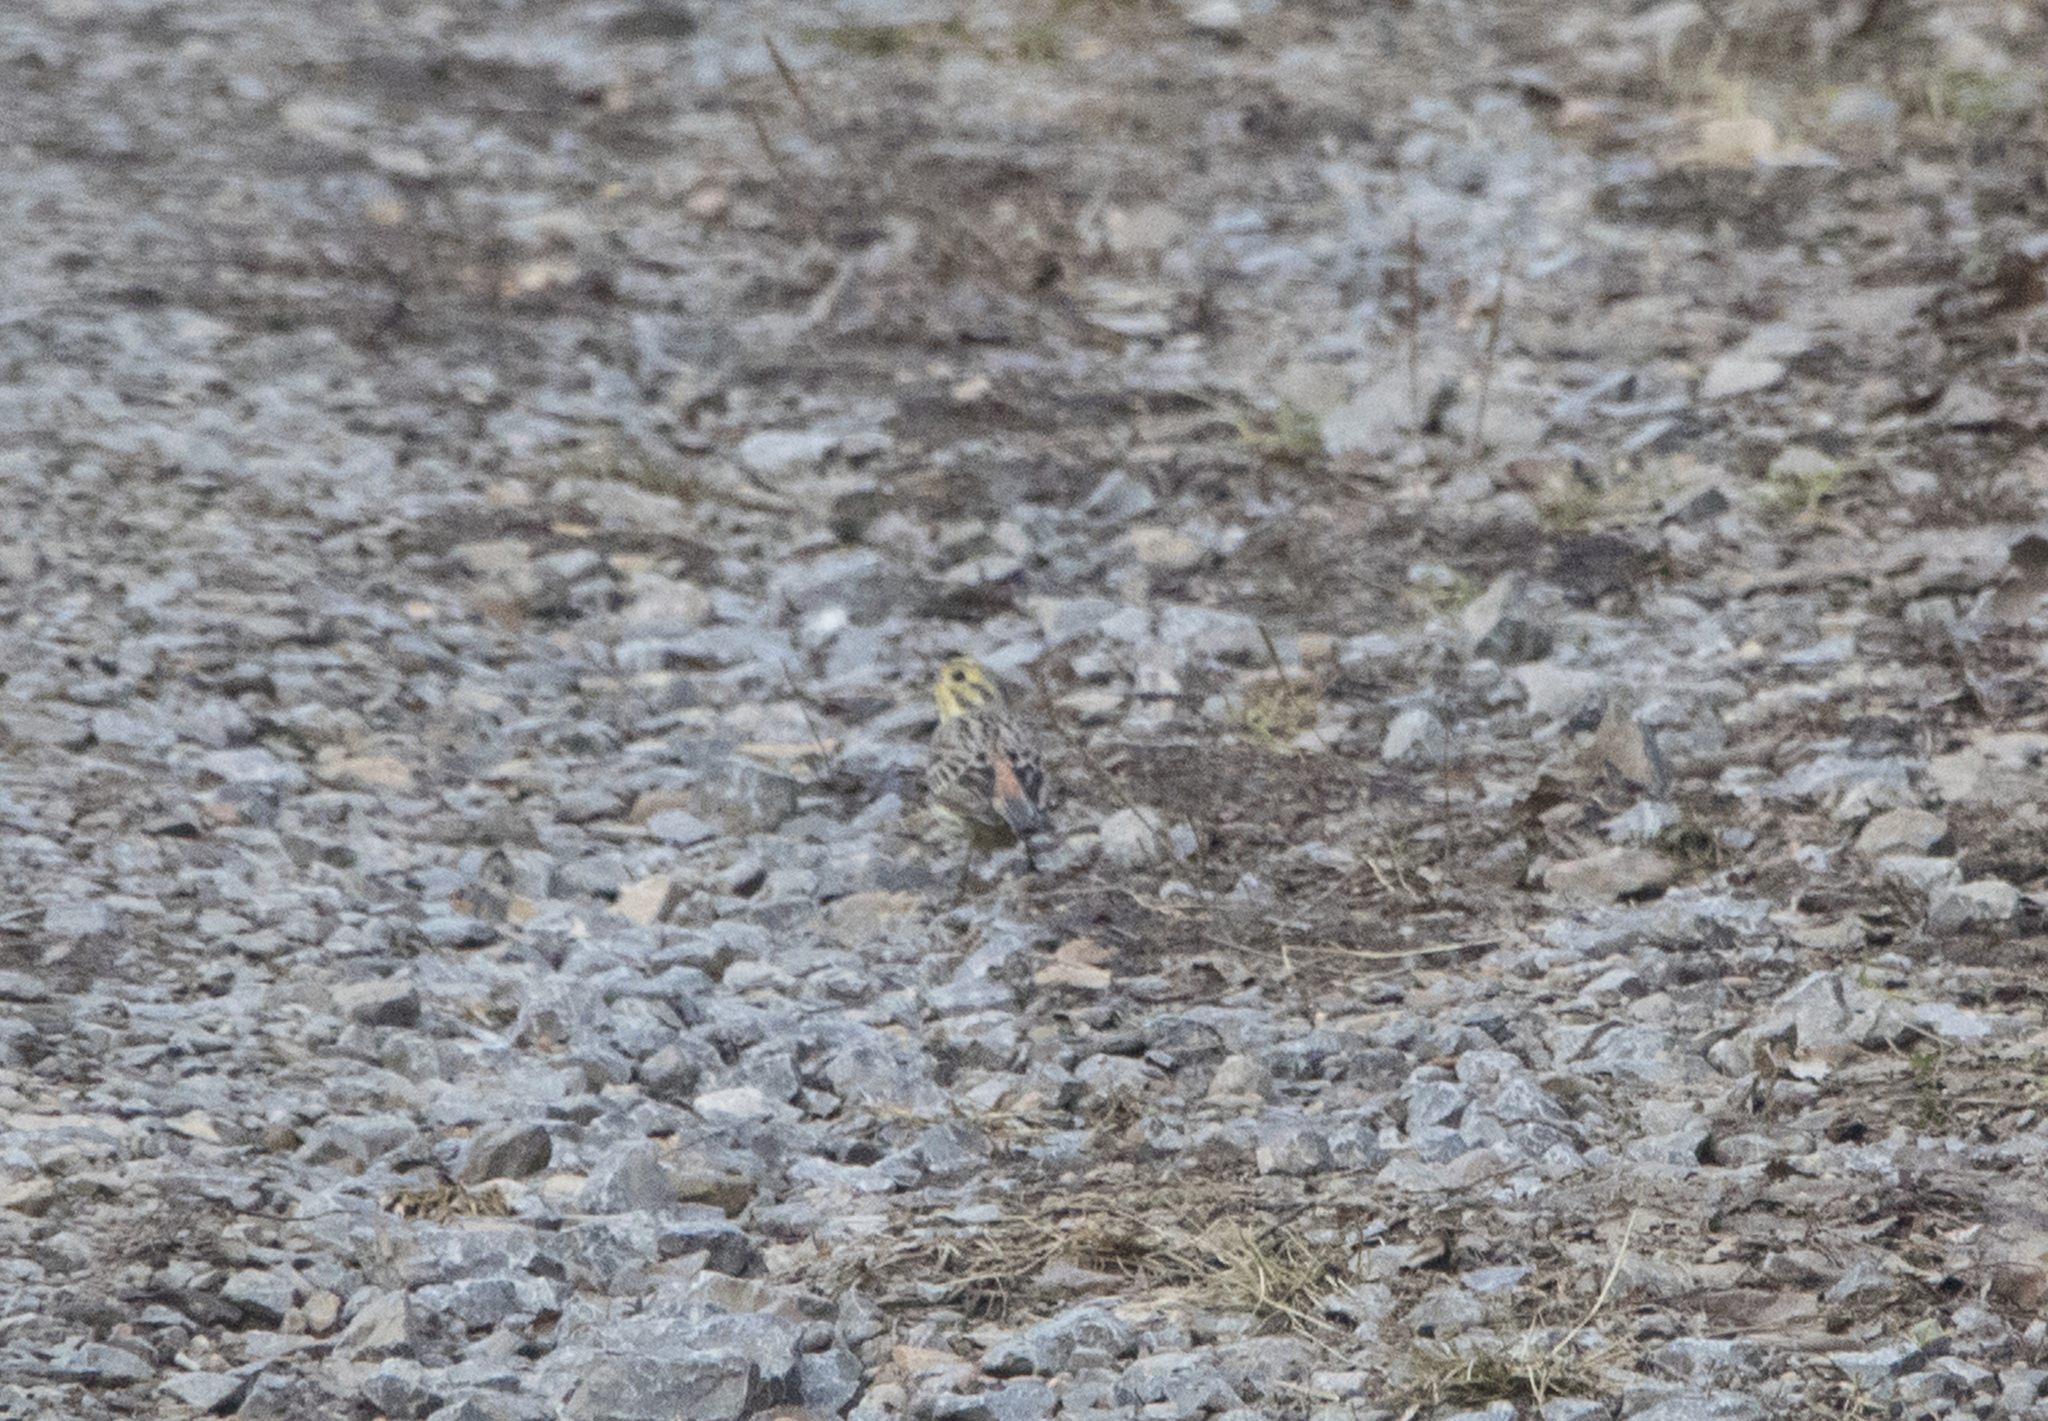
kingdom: Animalia
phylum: Chordata
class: Aves
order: Passeriformes
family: Emberizidae
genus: Emberiza
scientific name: Emberiza citrinella
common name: Yellowhammer
